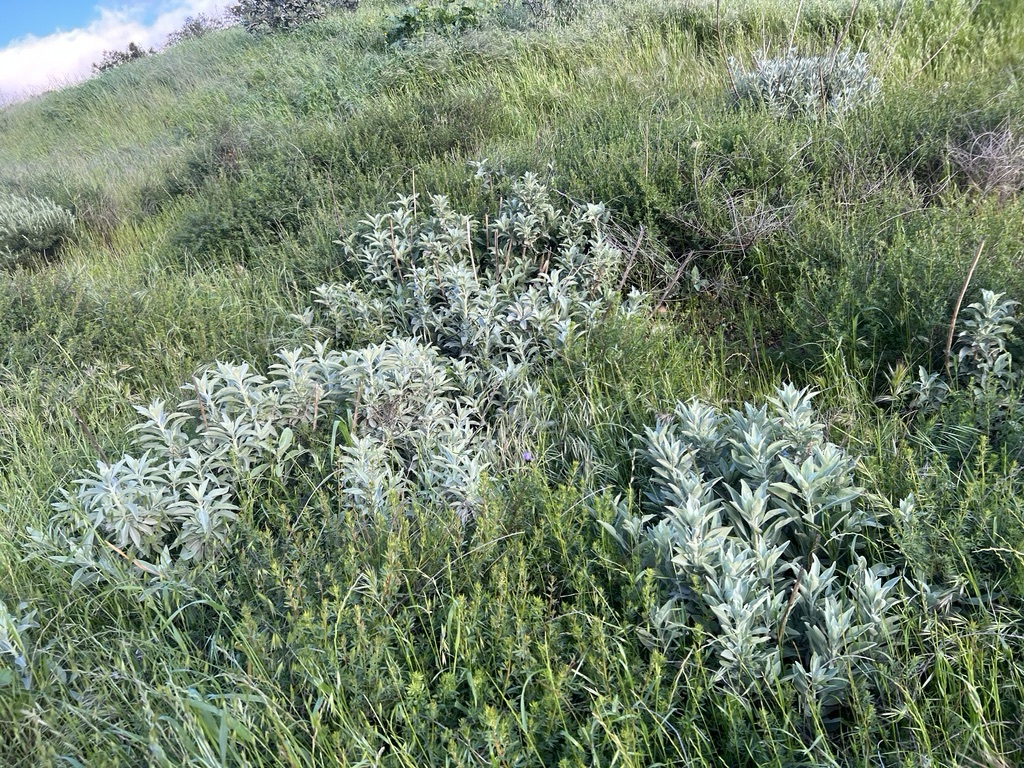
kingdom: Plantae
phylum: Tracheophyta
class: Magnoliopsida
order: Lamiales
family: Lamiaceae
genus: Salvia
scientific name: Salvia apiana
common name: White sage
